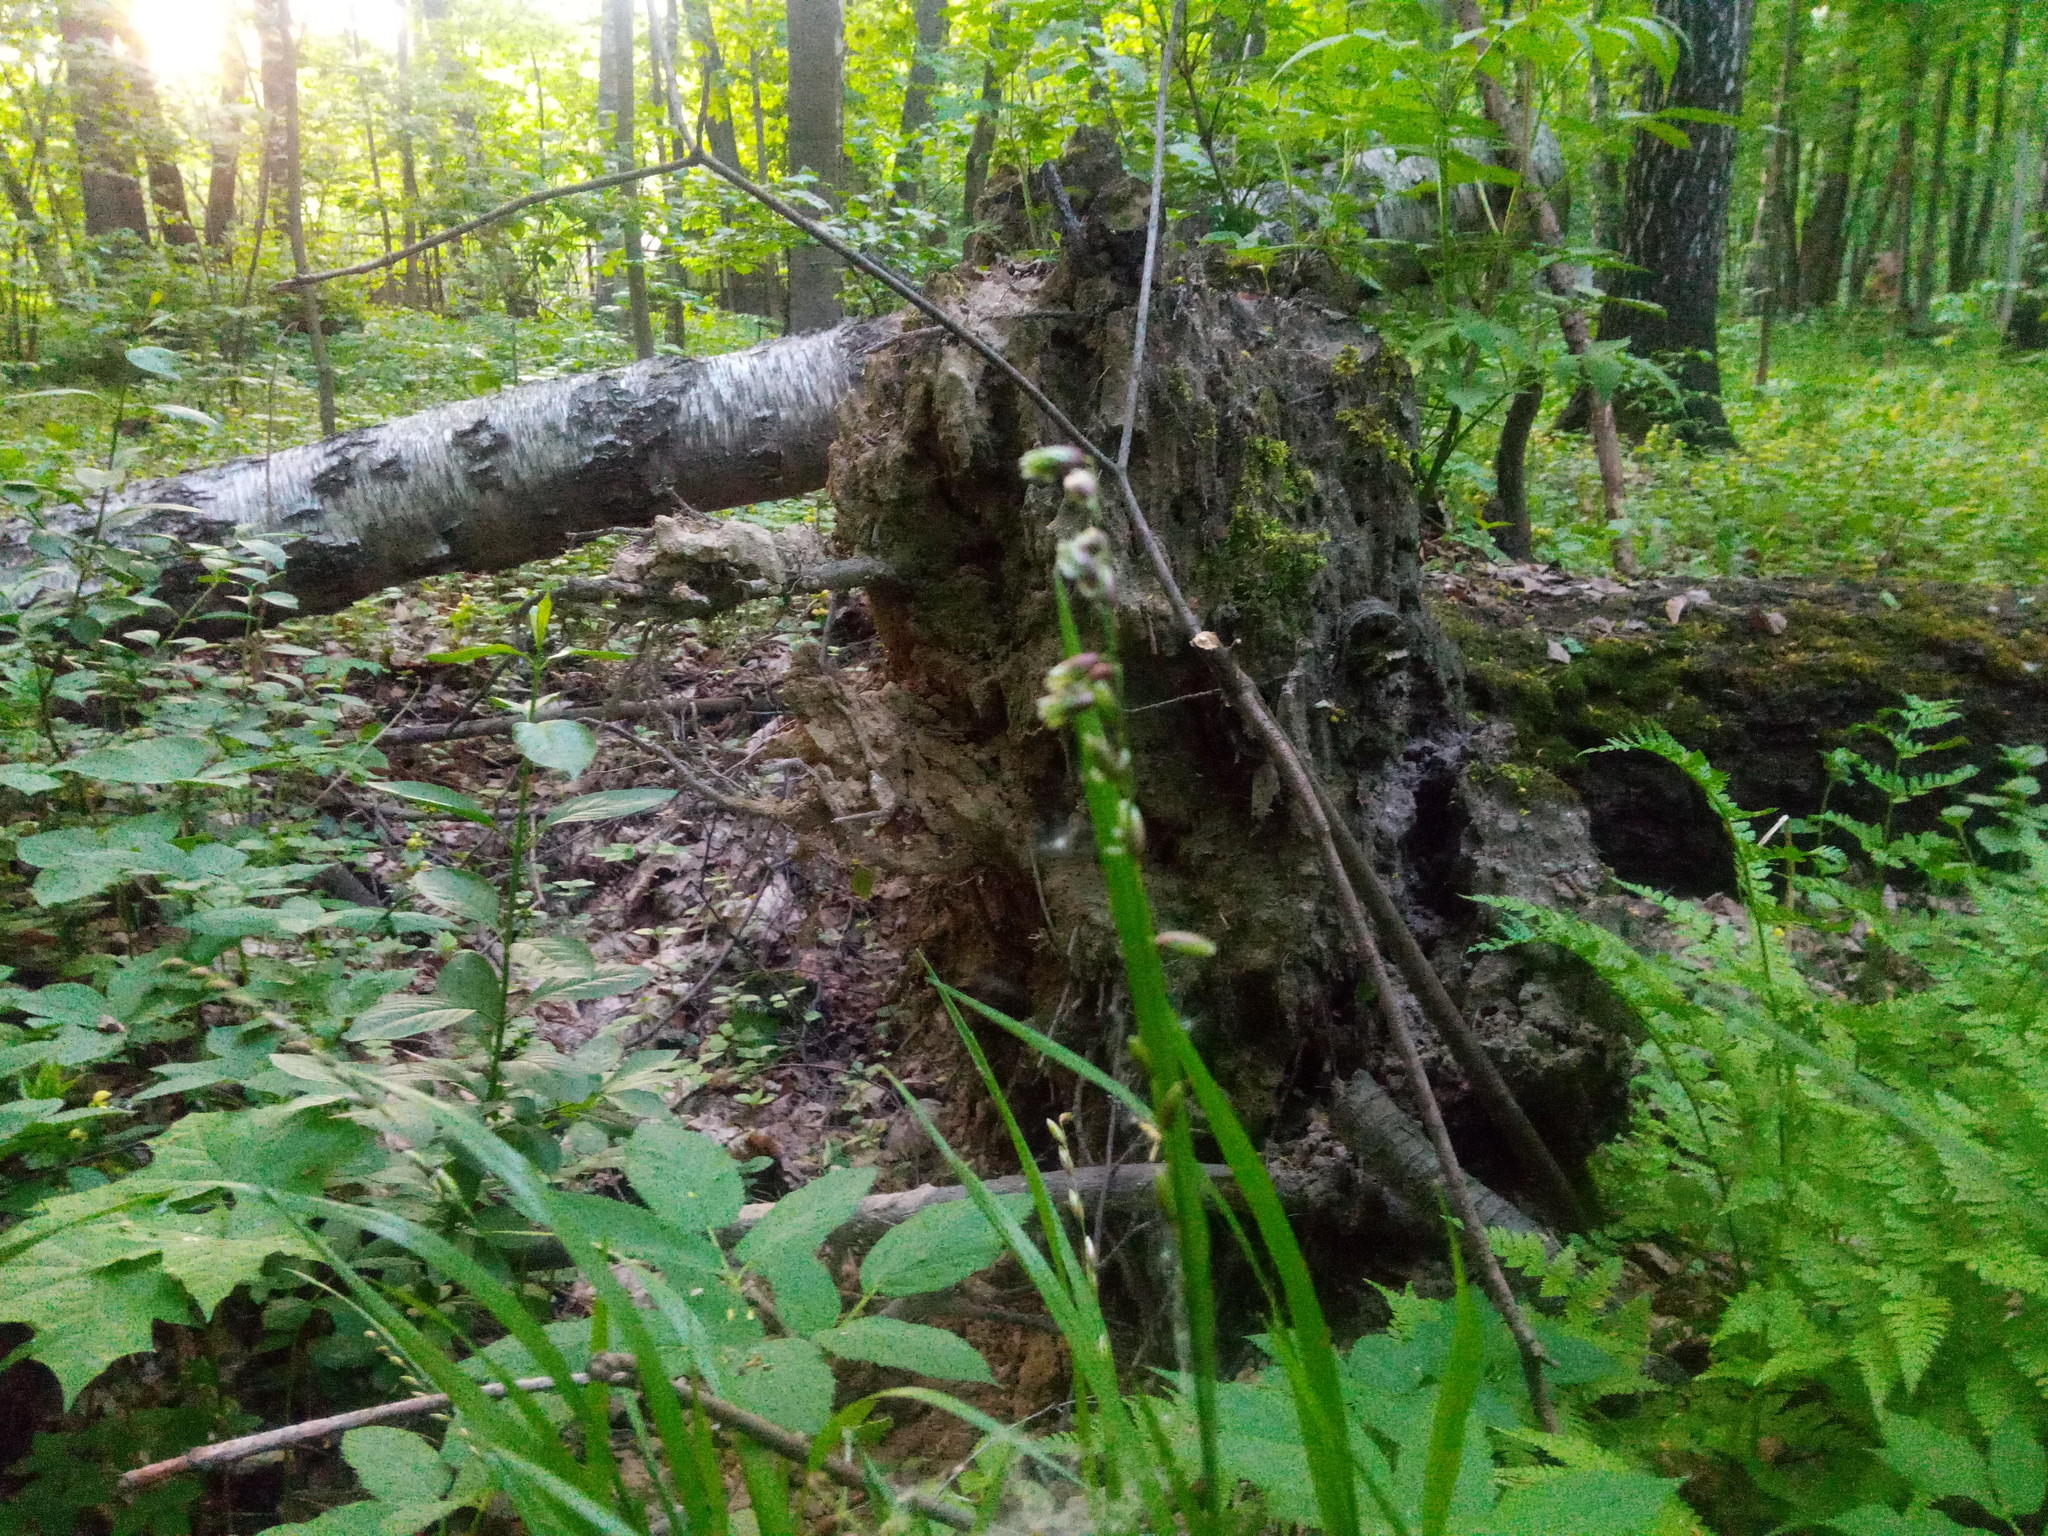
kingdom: Plantae
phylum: Tracheophyta
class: Liliopsida
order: Poales
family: Poaceae
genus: Melica
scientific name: Melica nutans
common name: Mountain melick
